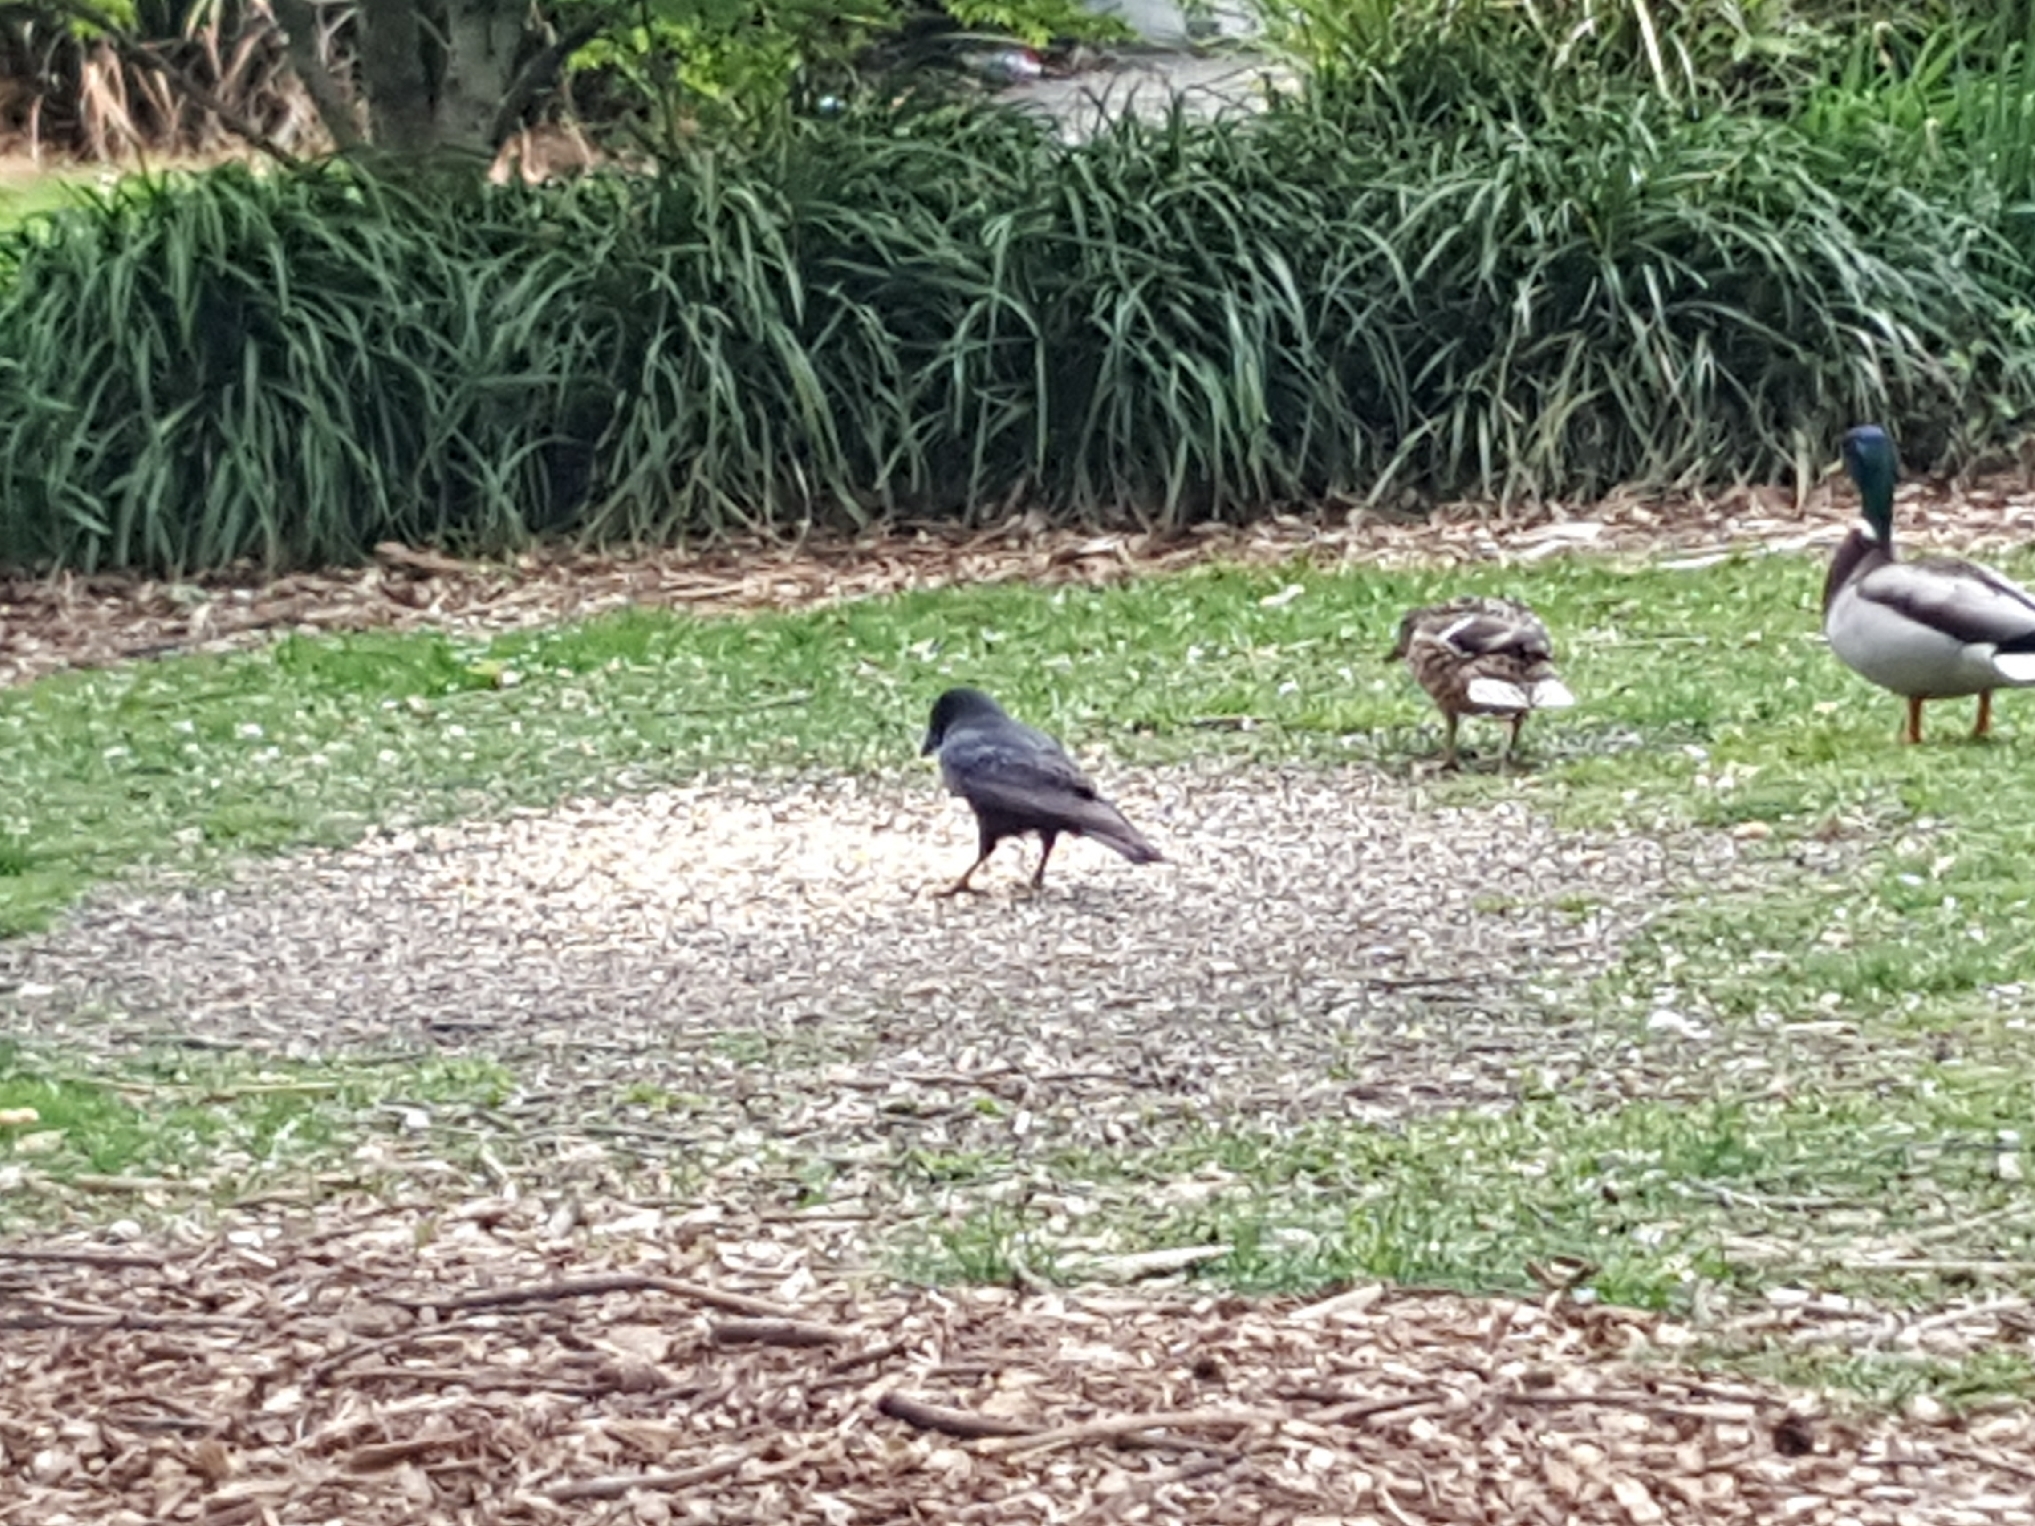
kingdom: Animalia
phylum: Chordata
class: Aves
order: Passeriformes
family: Corvidae
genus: Corvus
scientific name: Corvus brachyrhynchos
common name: American crow
